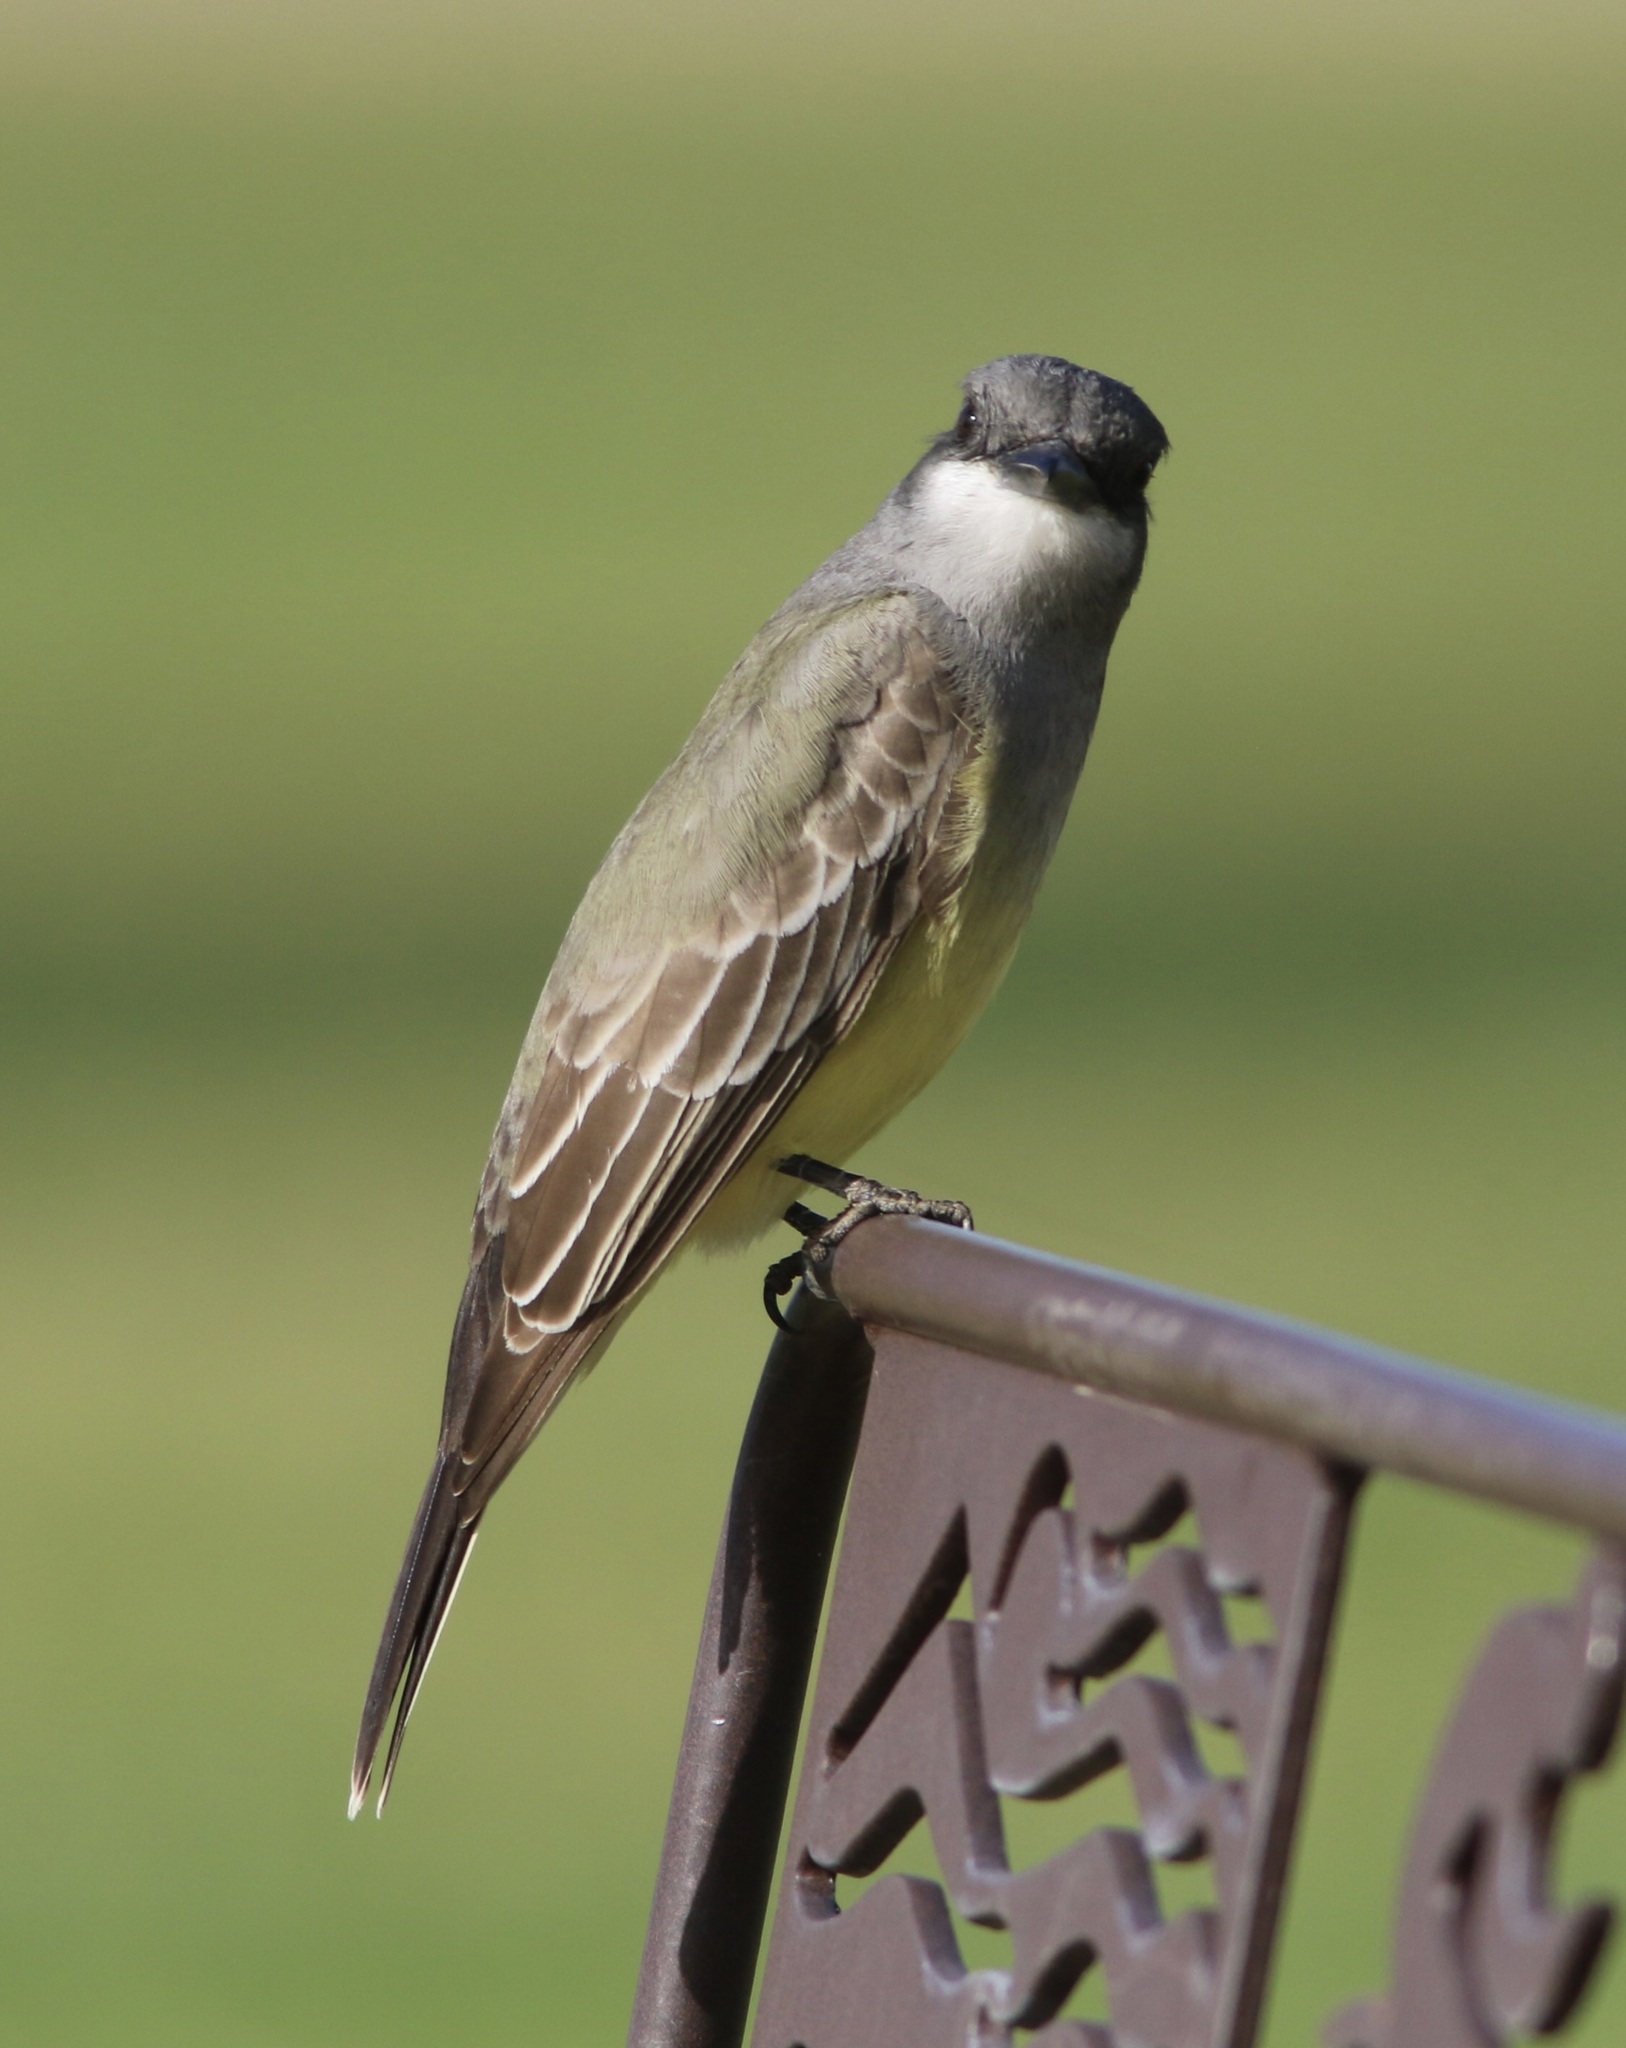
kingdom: Animalia
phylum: Chordata
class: Aves
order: Passeriformes
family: Tyrannidae
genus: Tyrannus
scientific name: Tyrannus vociferans
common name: Cassin's kingbird
